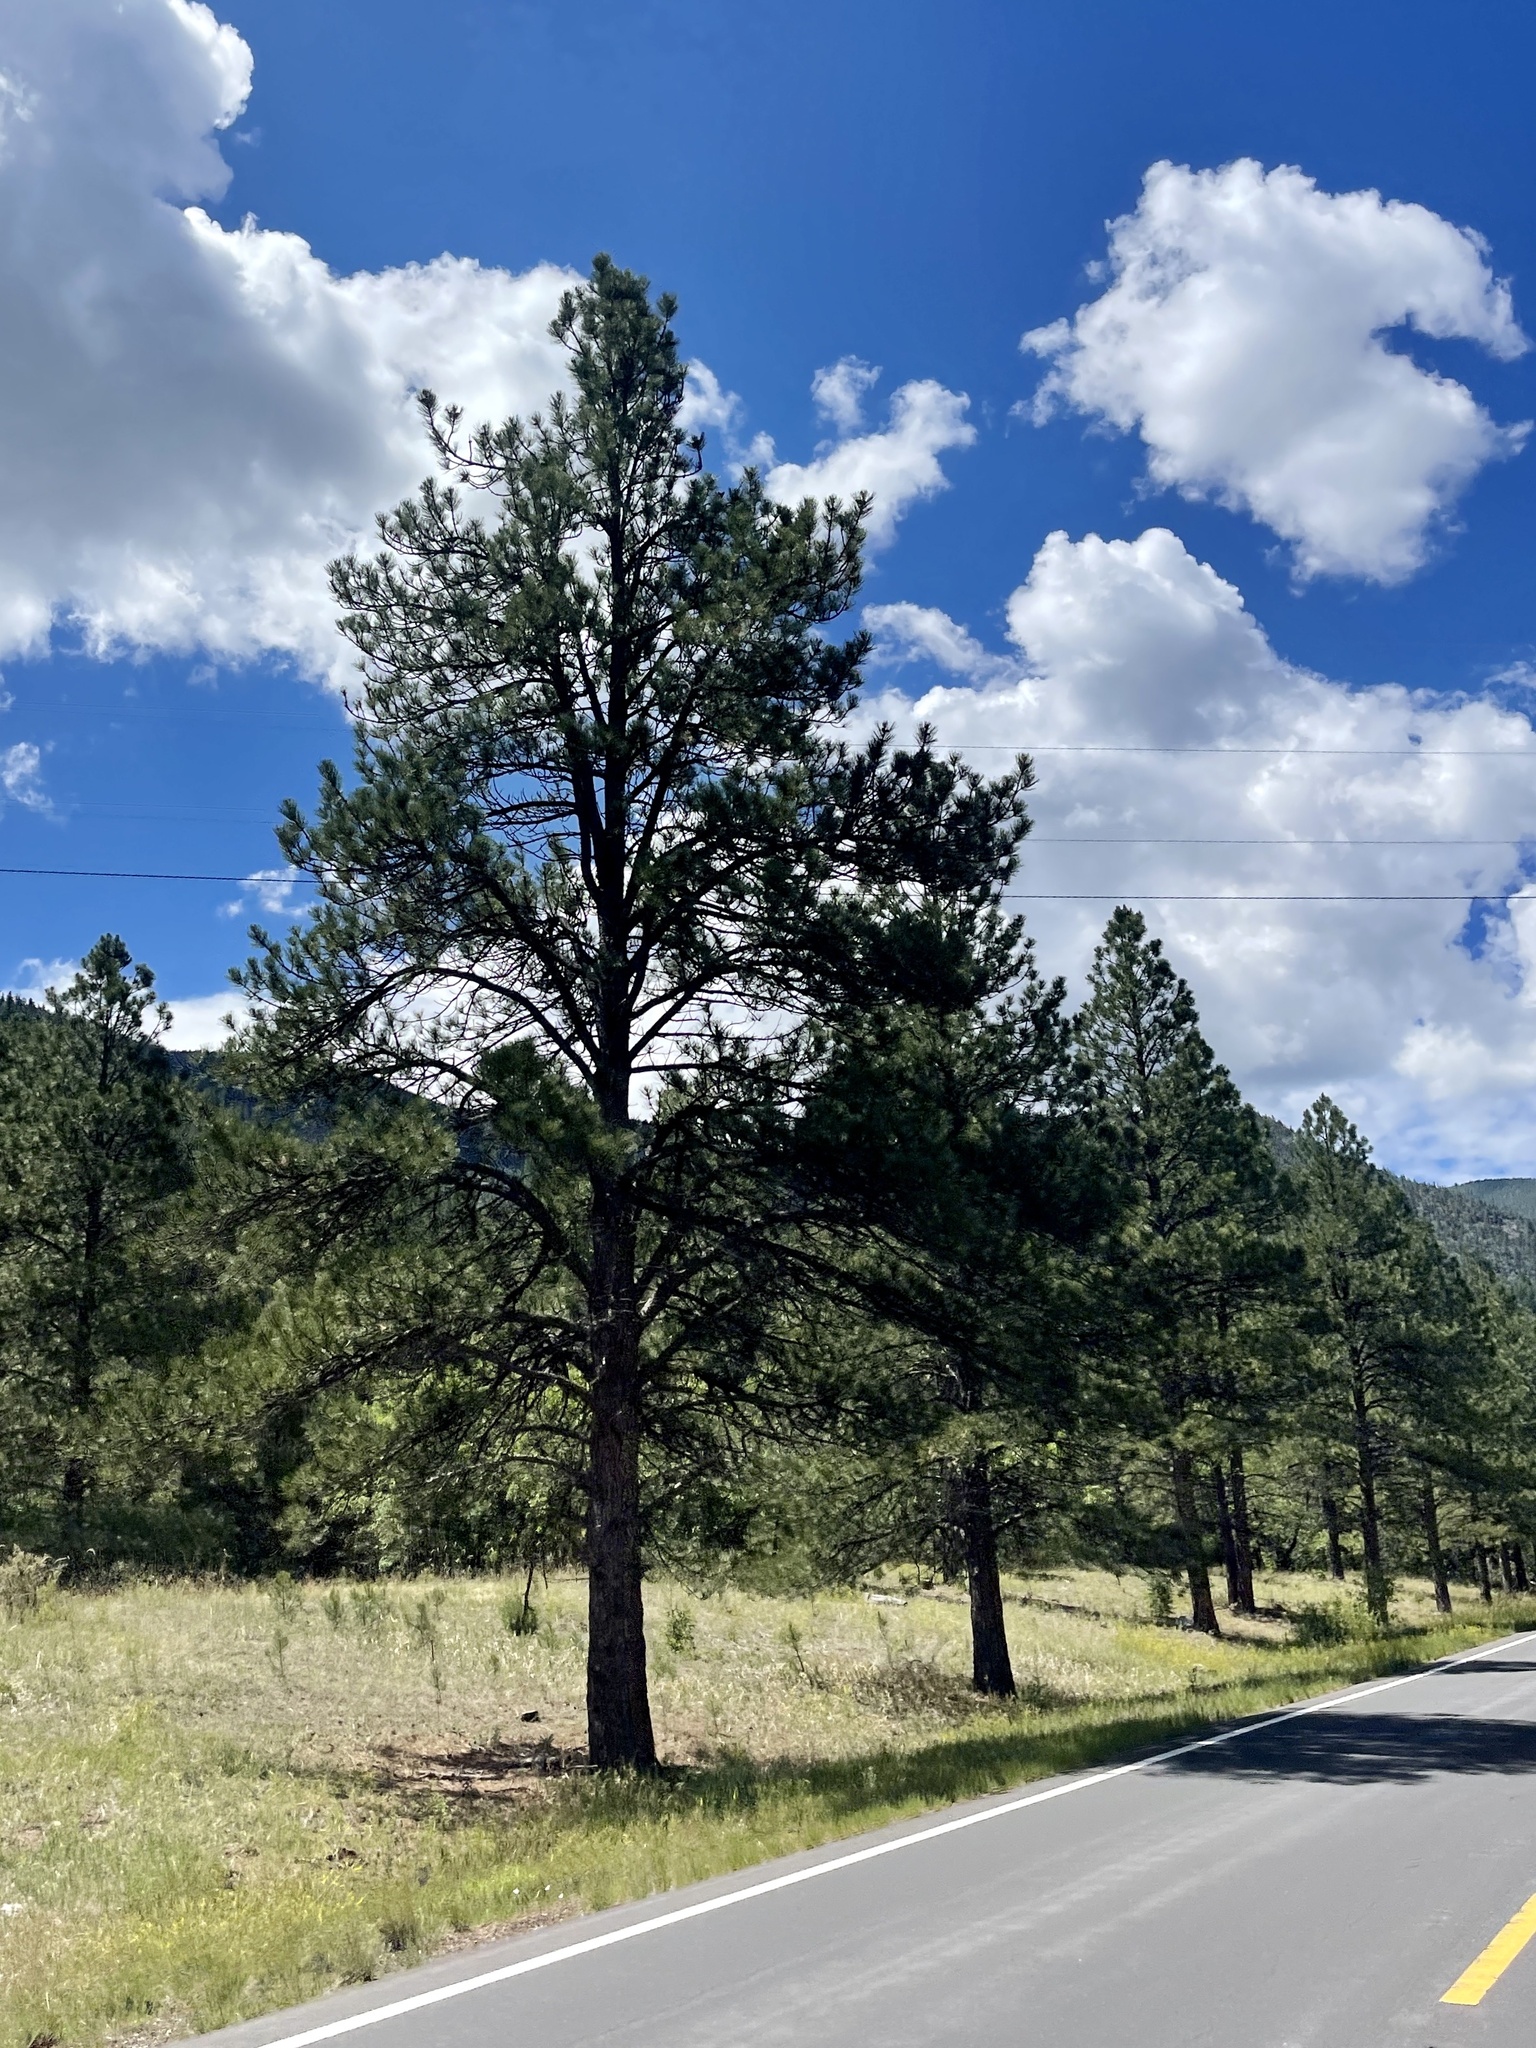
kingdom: Plantae
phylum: Tracheophyta
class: Pinopsida
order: Pinales
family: Pinaceae
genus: Pinus
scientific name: Pinus ponderosa
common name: Western yellow-pine
